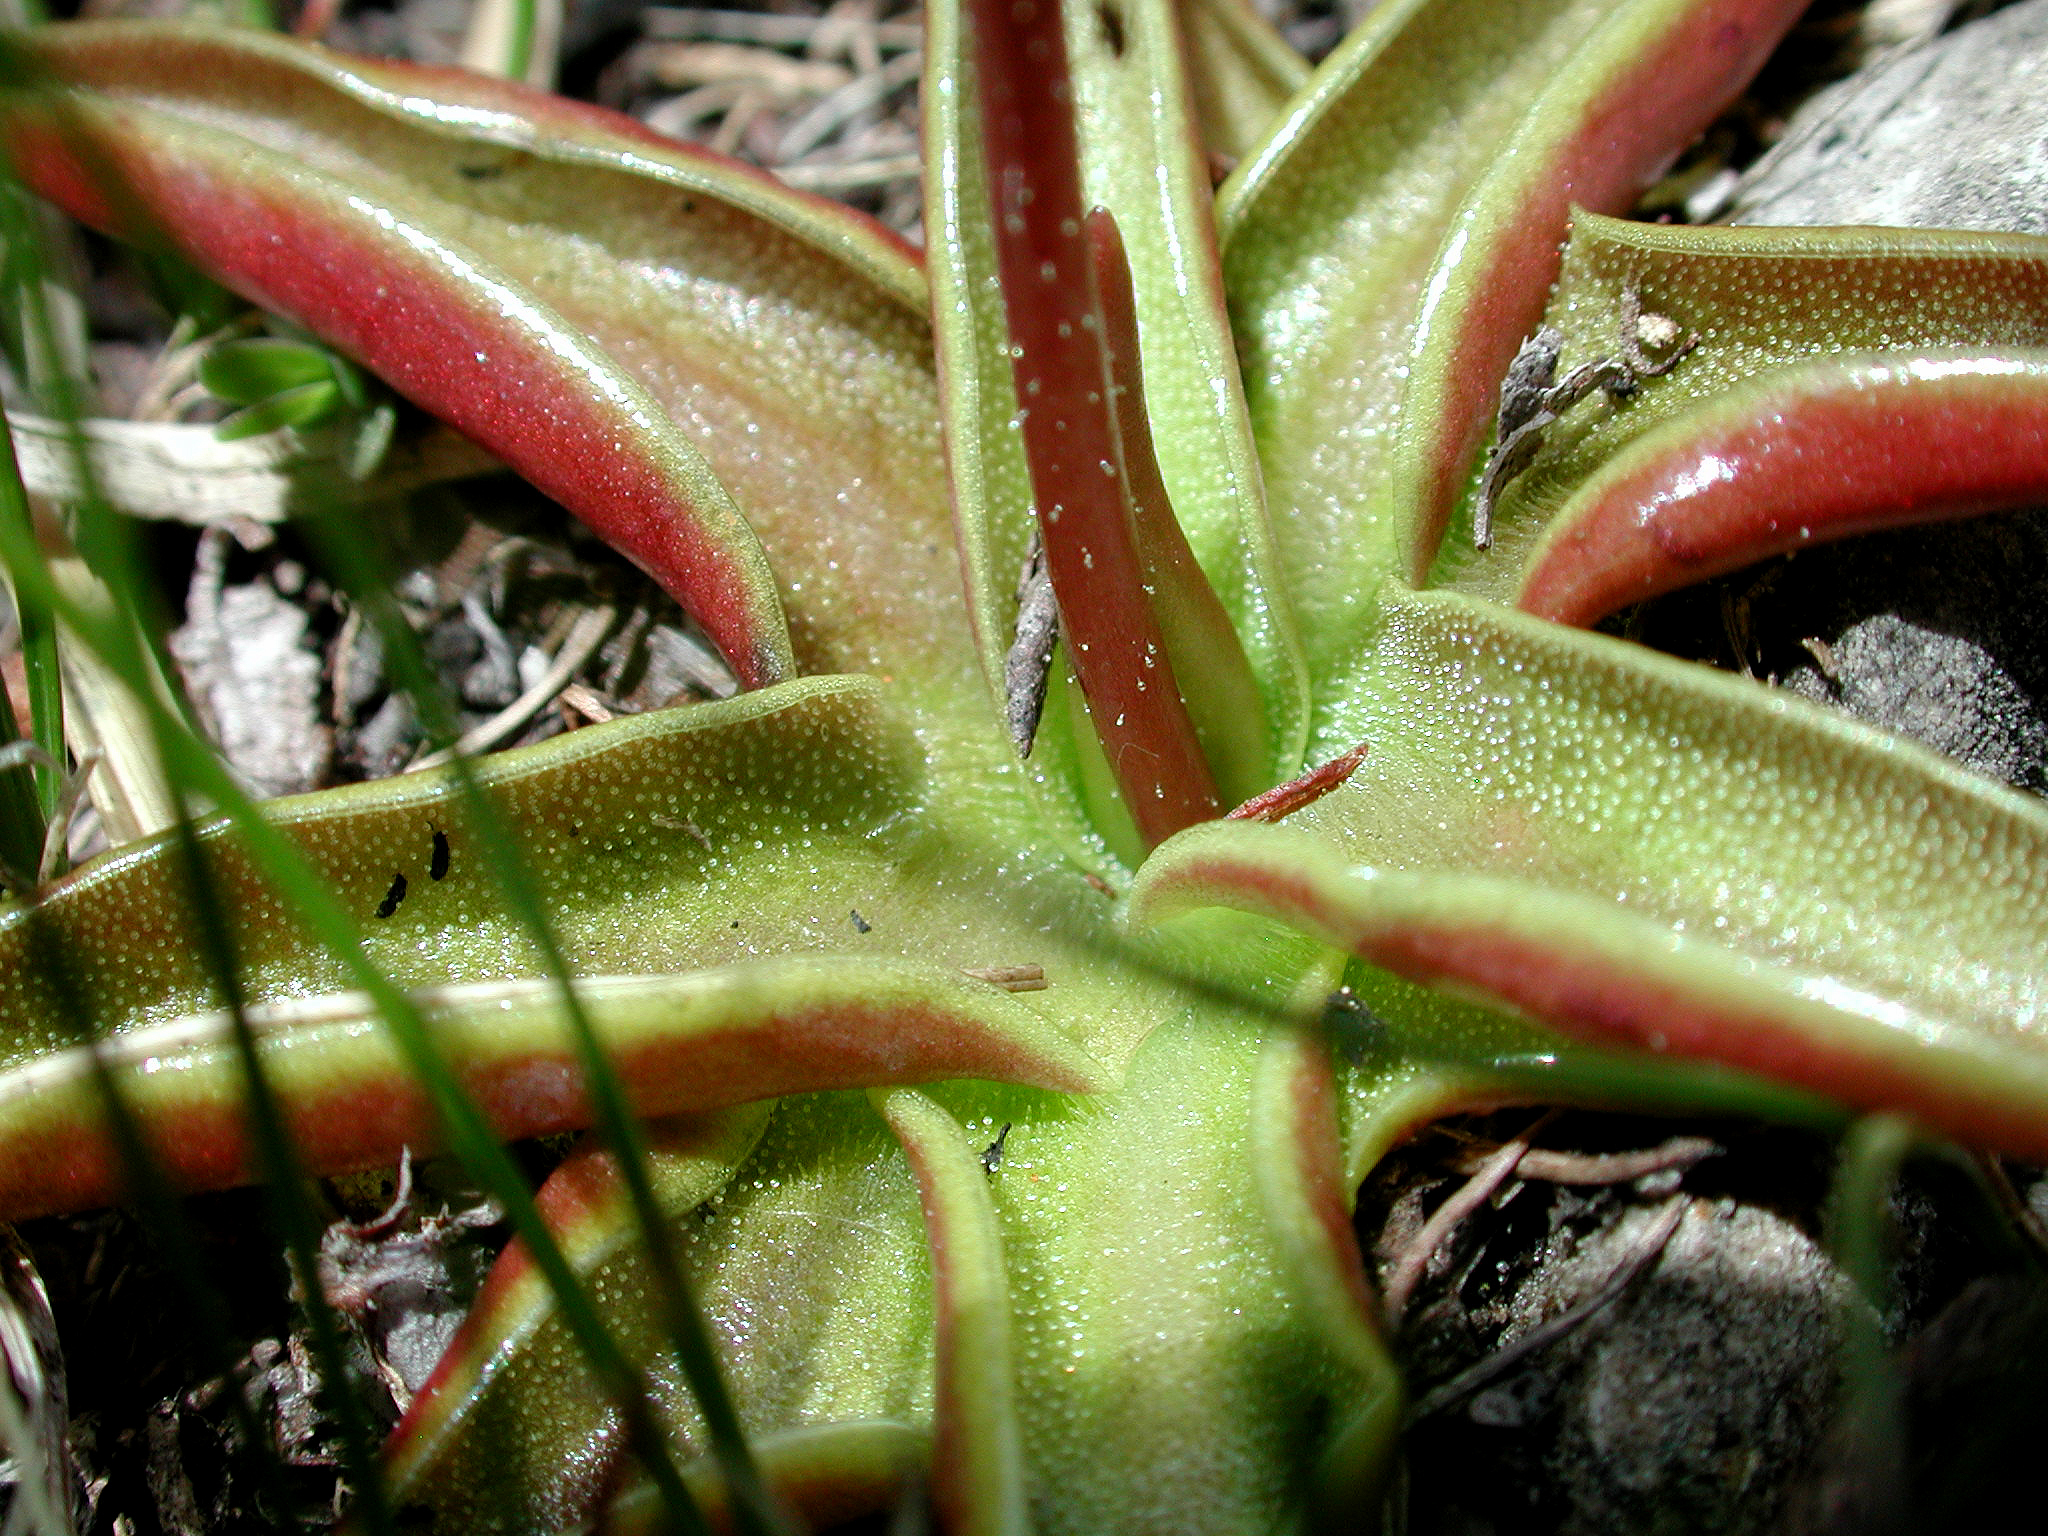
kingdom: Plantae
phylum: Tracheophyta
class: Magnoliopsida
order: Lamiales
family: Lentibulariaceae
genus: Pinguicula
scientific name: Pinguicula alpina
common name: Alpine butterwort
